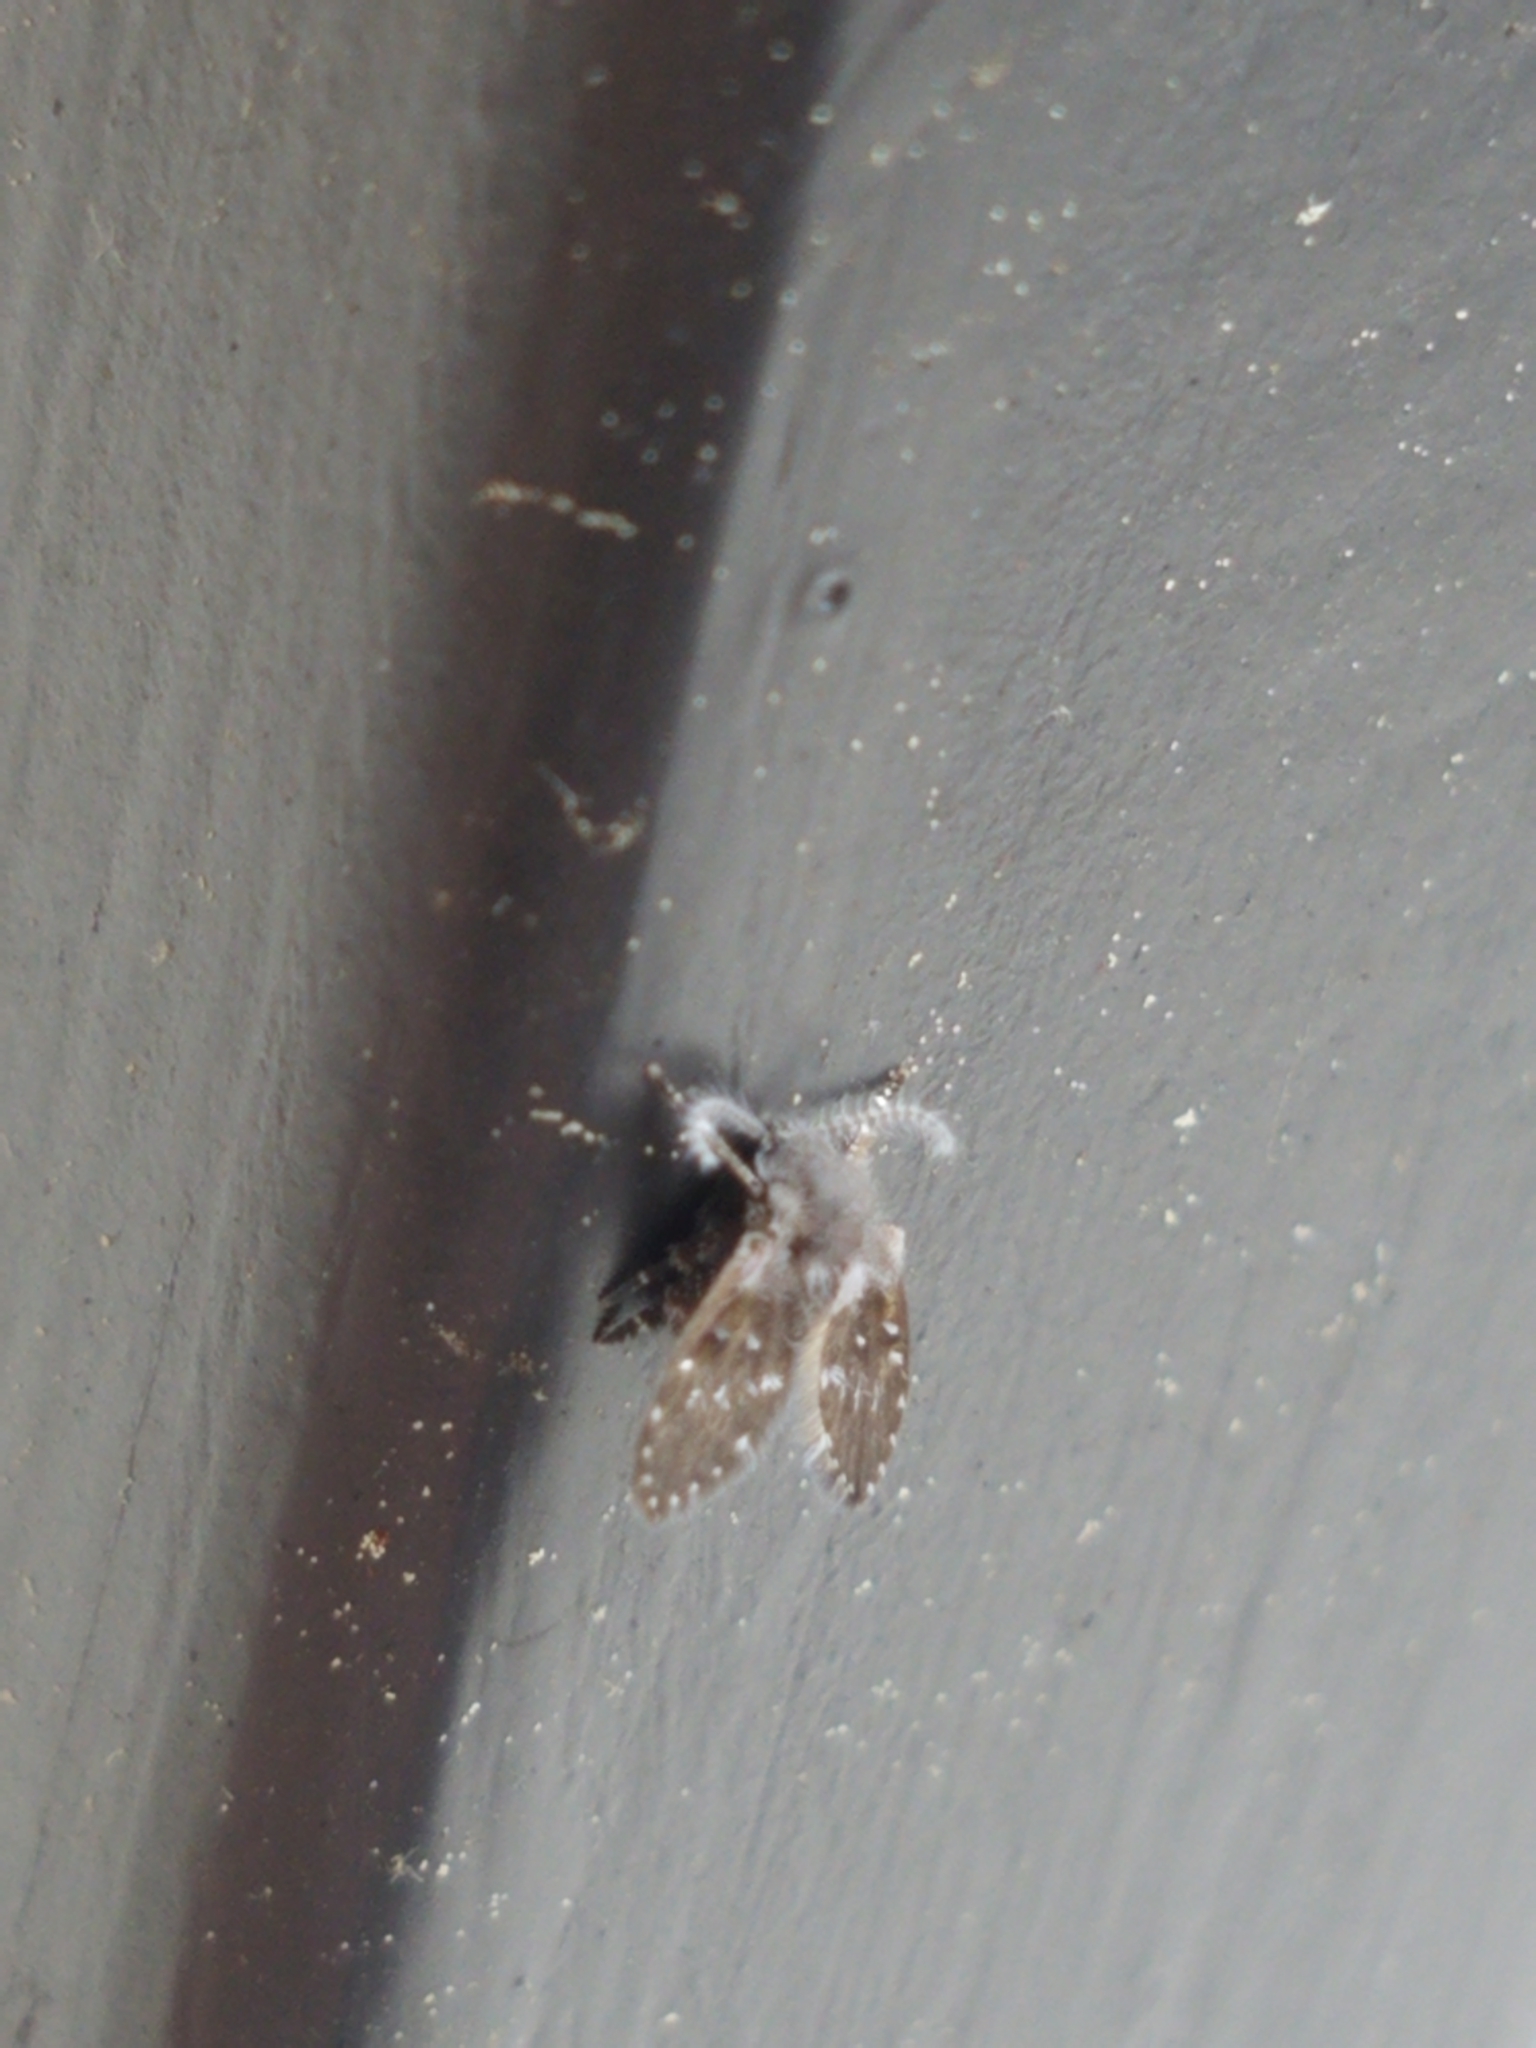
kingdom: Animalia
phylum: Arthropoda
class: Insecta
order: Diptera
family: Psychodidae
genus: Clogmia
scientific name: Clogmia albipunctatus
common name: White-spotted moth fly
